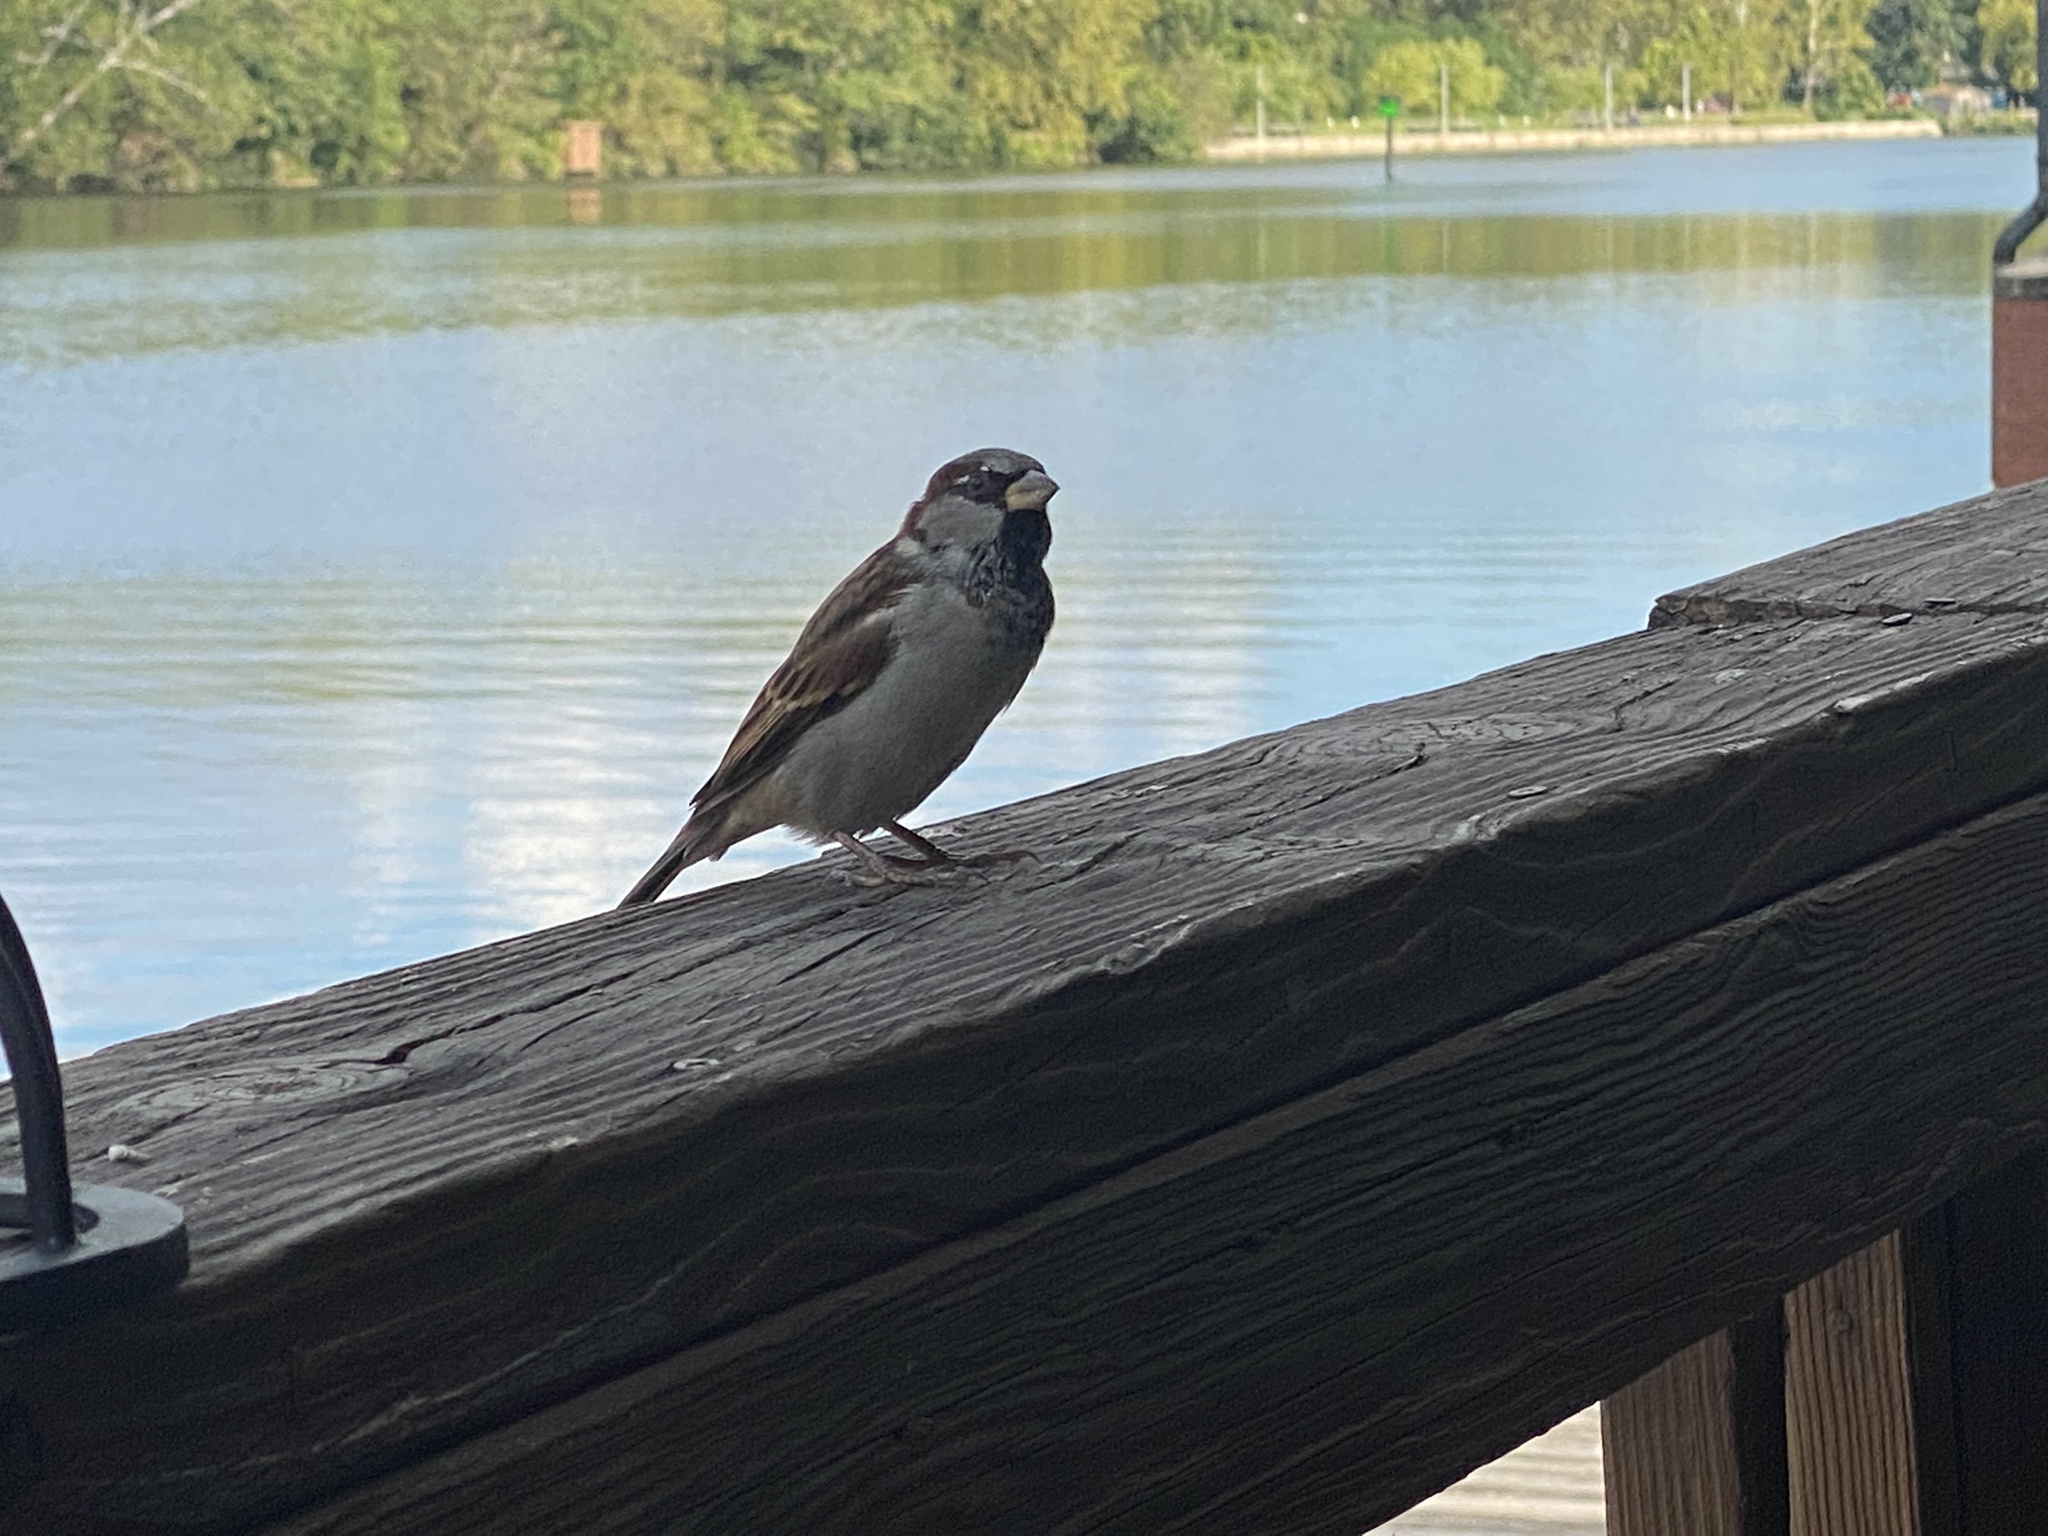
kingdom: Animalia
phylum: Chordata
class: Aves
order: Passeriformes
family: Passeridae
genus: Passer
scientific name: Passer domesticus
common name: House sparrow
